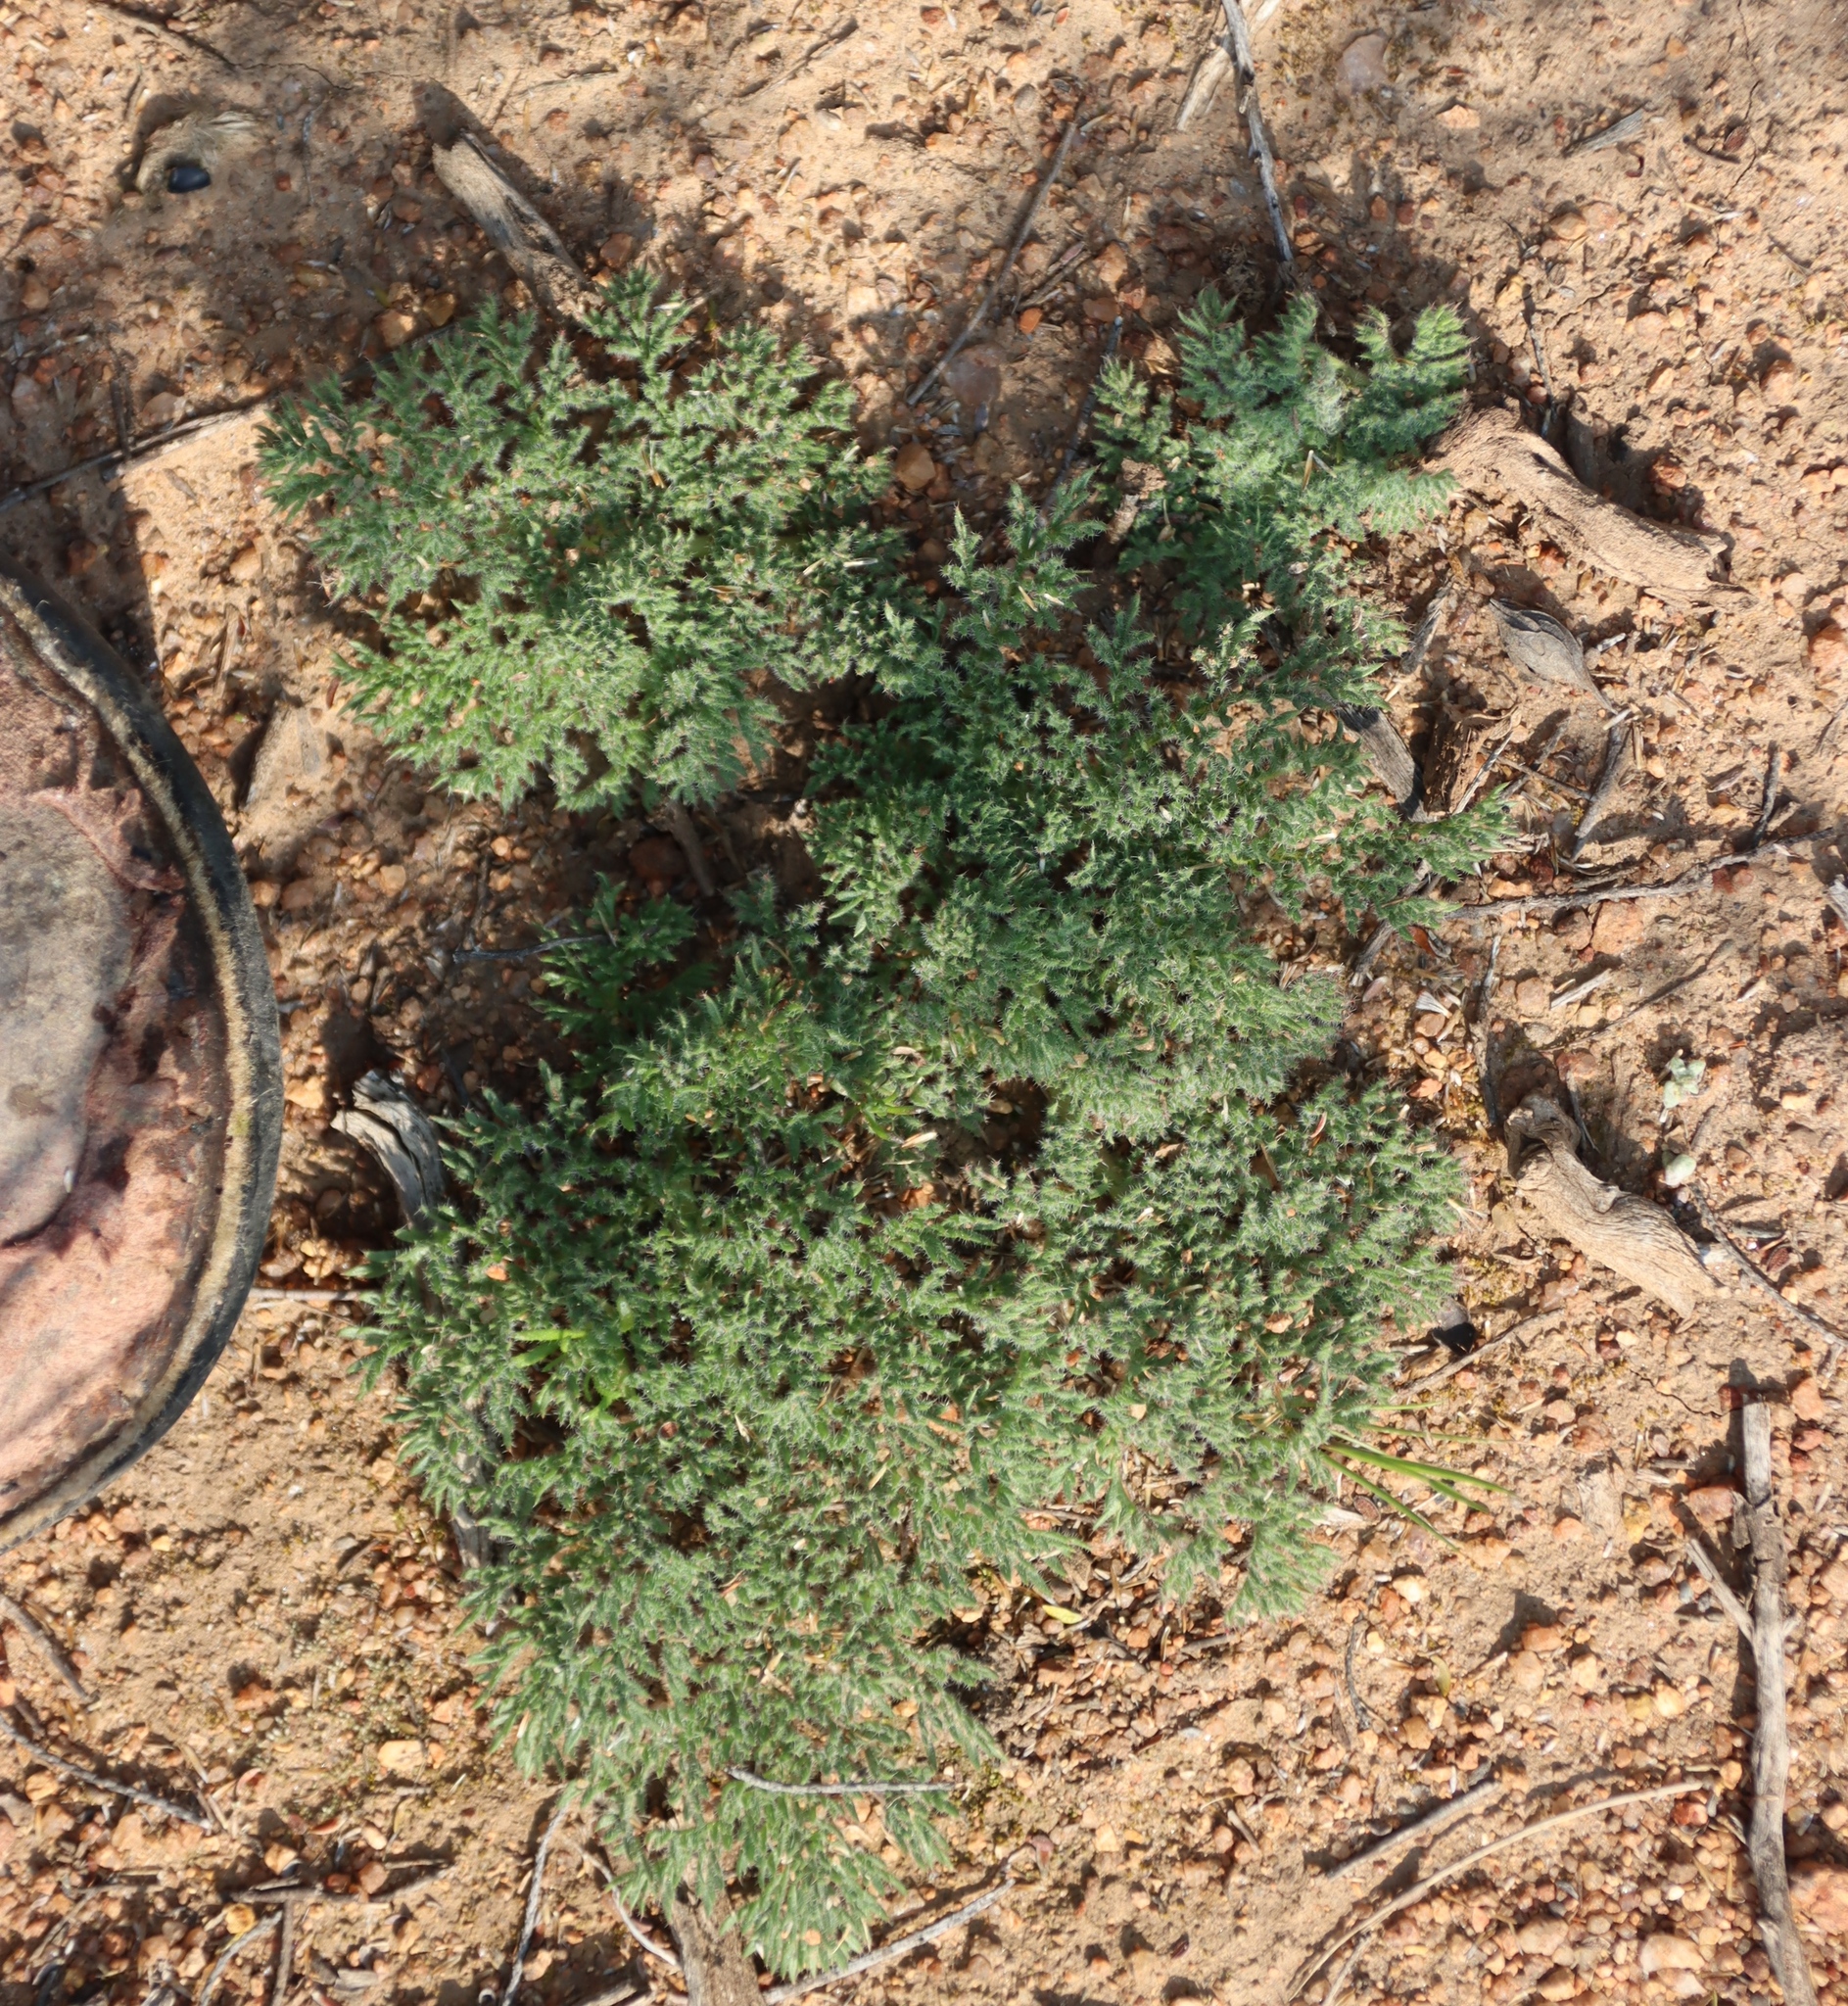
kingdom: Plantae
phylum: Tracheophyta
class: Magnoliopsida
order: Geraniales
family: Geraniaceae
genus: Pelargonium
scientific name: Pelargonium triste
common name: Night-scent pelargonium
